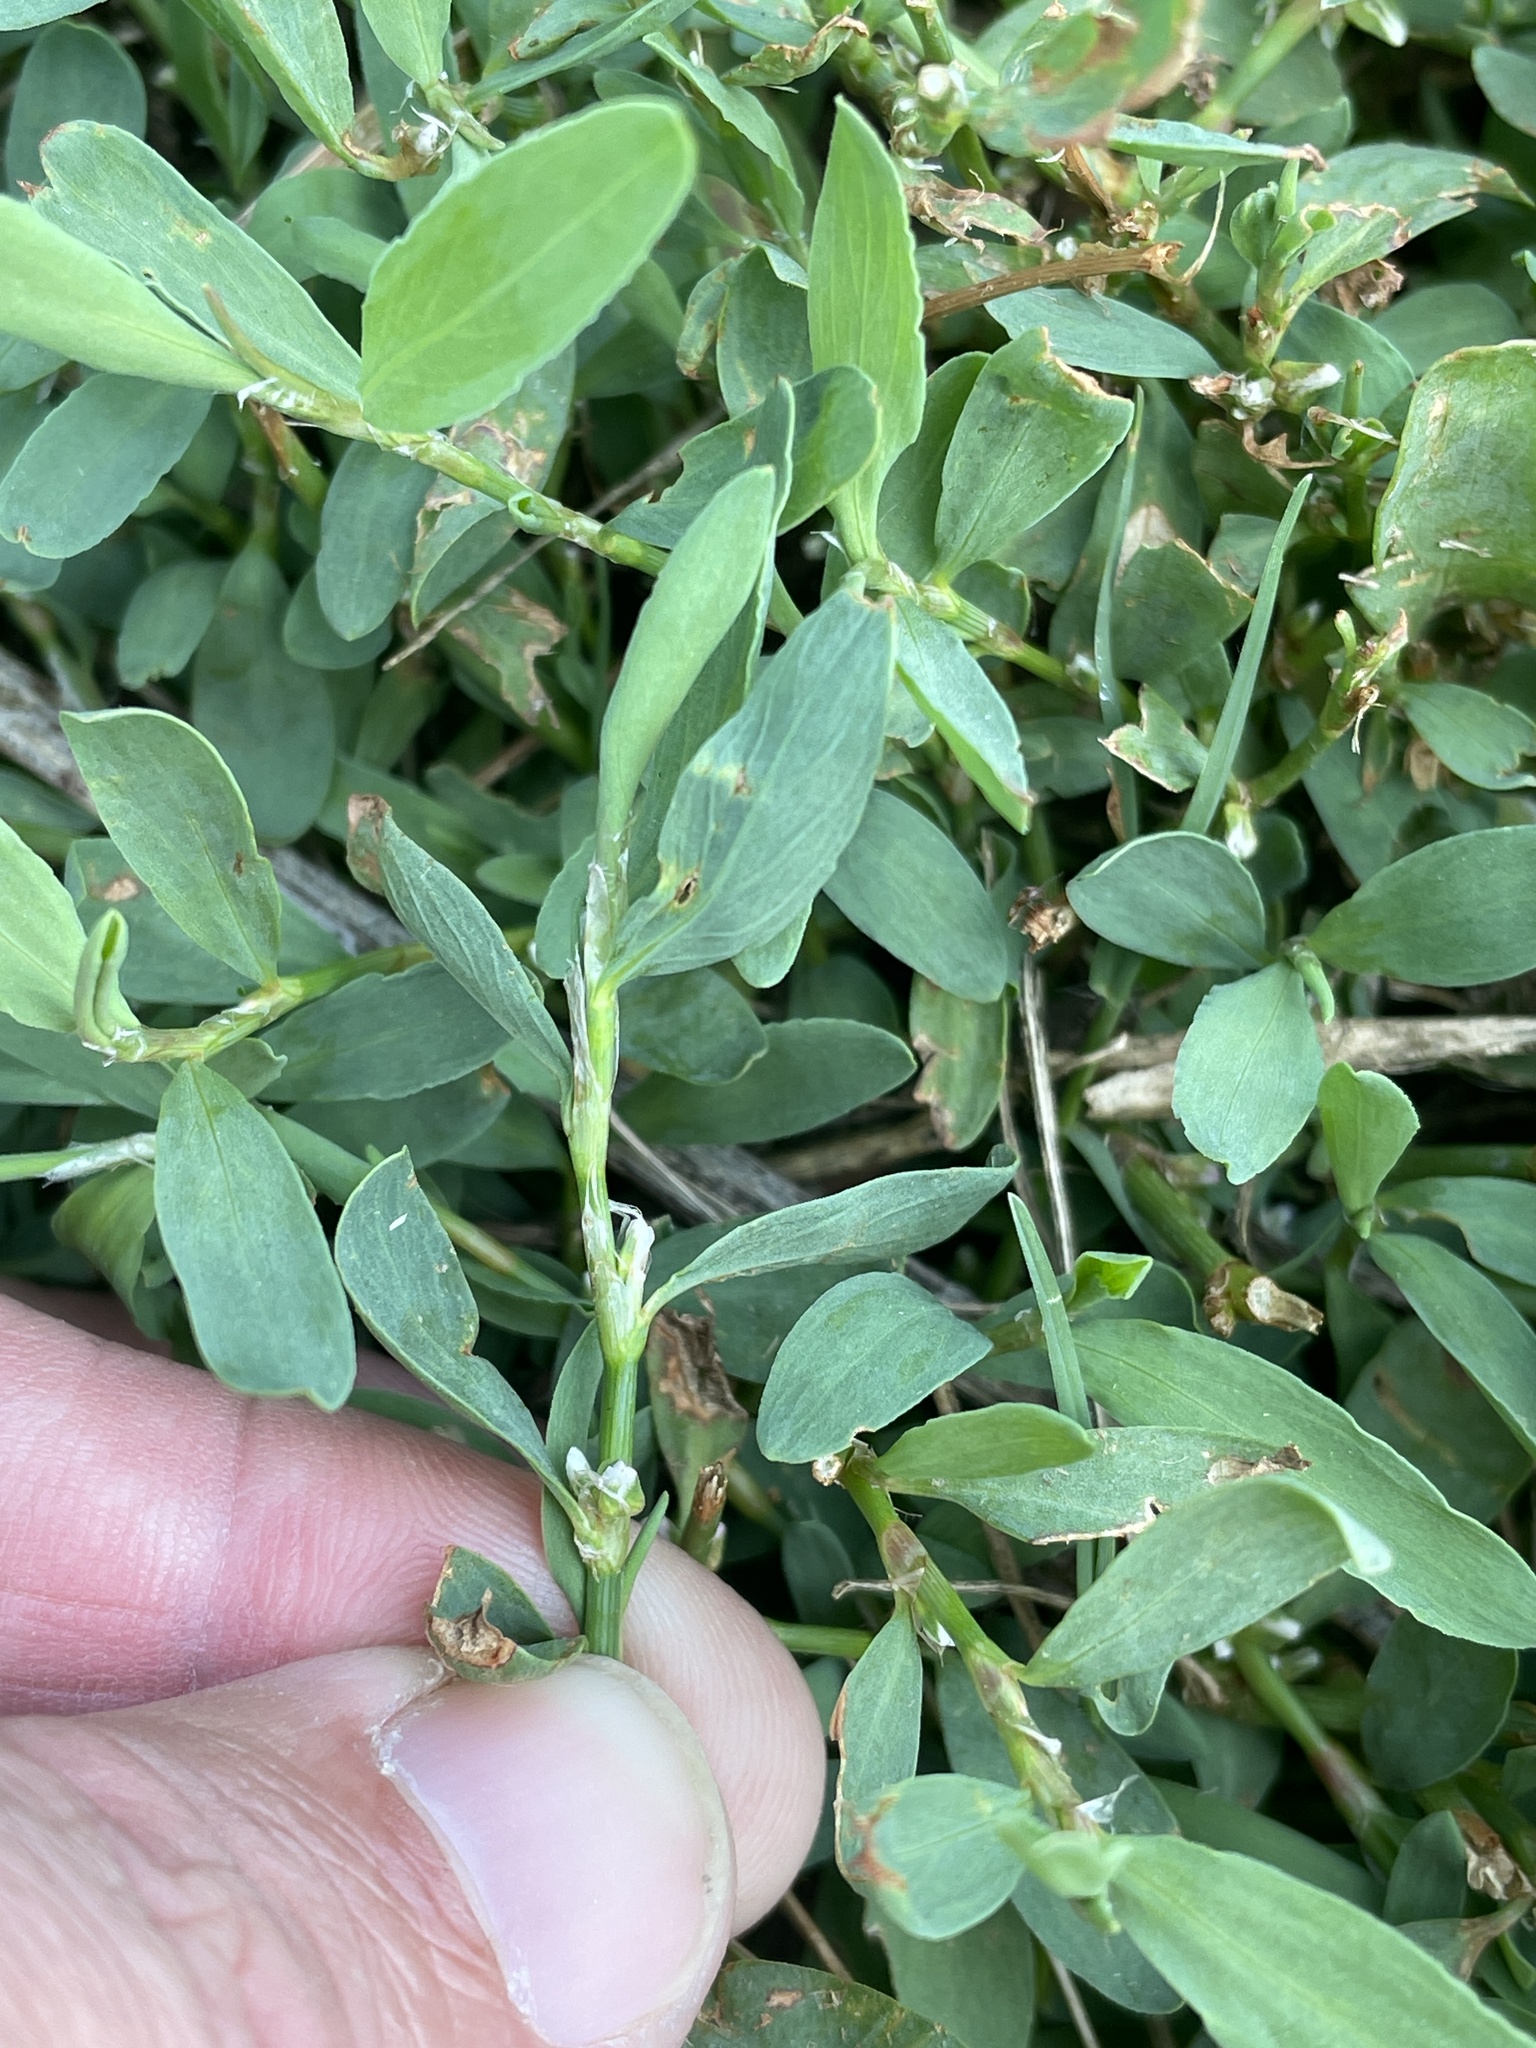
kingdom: Plantae
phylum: Tracheophyta
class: Magnoliopsida
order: Caryophyllales
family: Polygonaceae
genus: Polygonum
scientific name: Polygonum aviculare
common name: Prostrate knotweed
